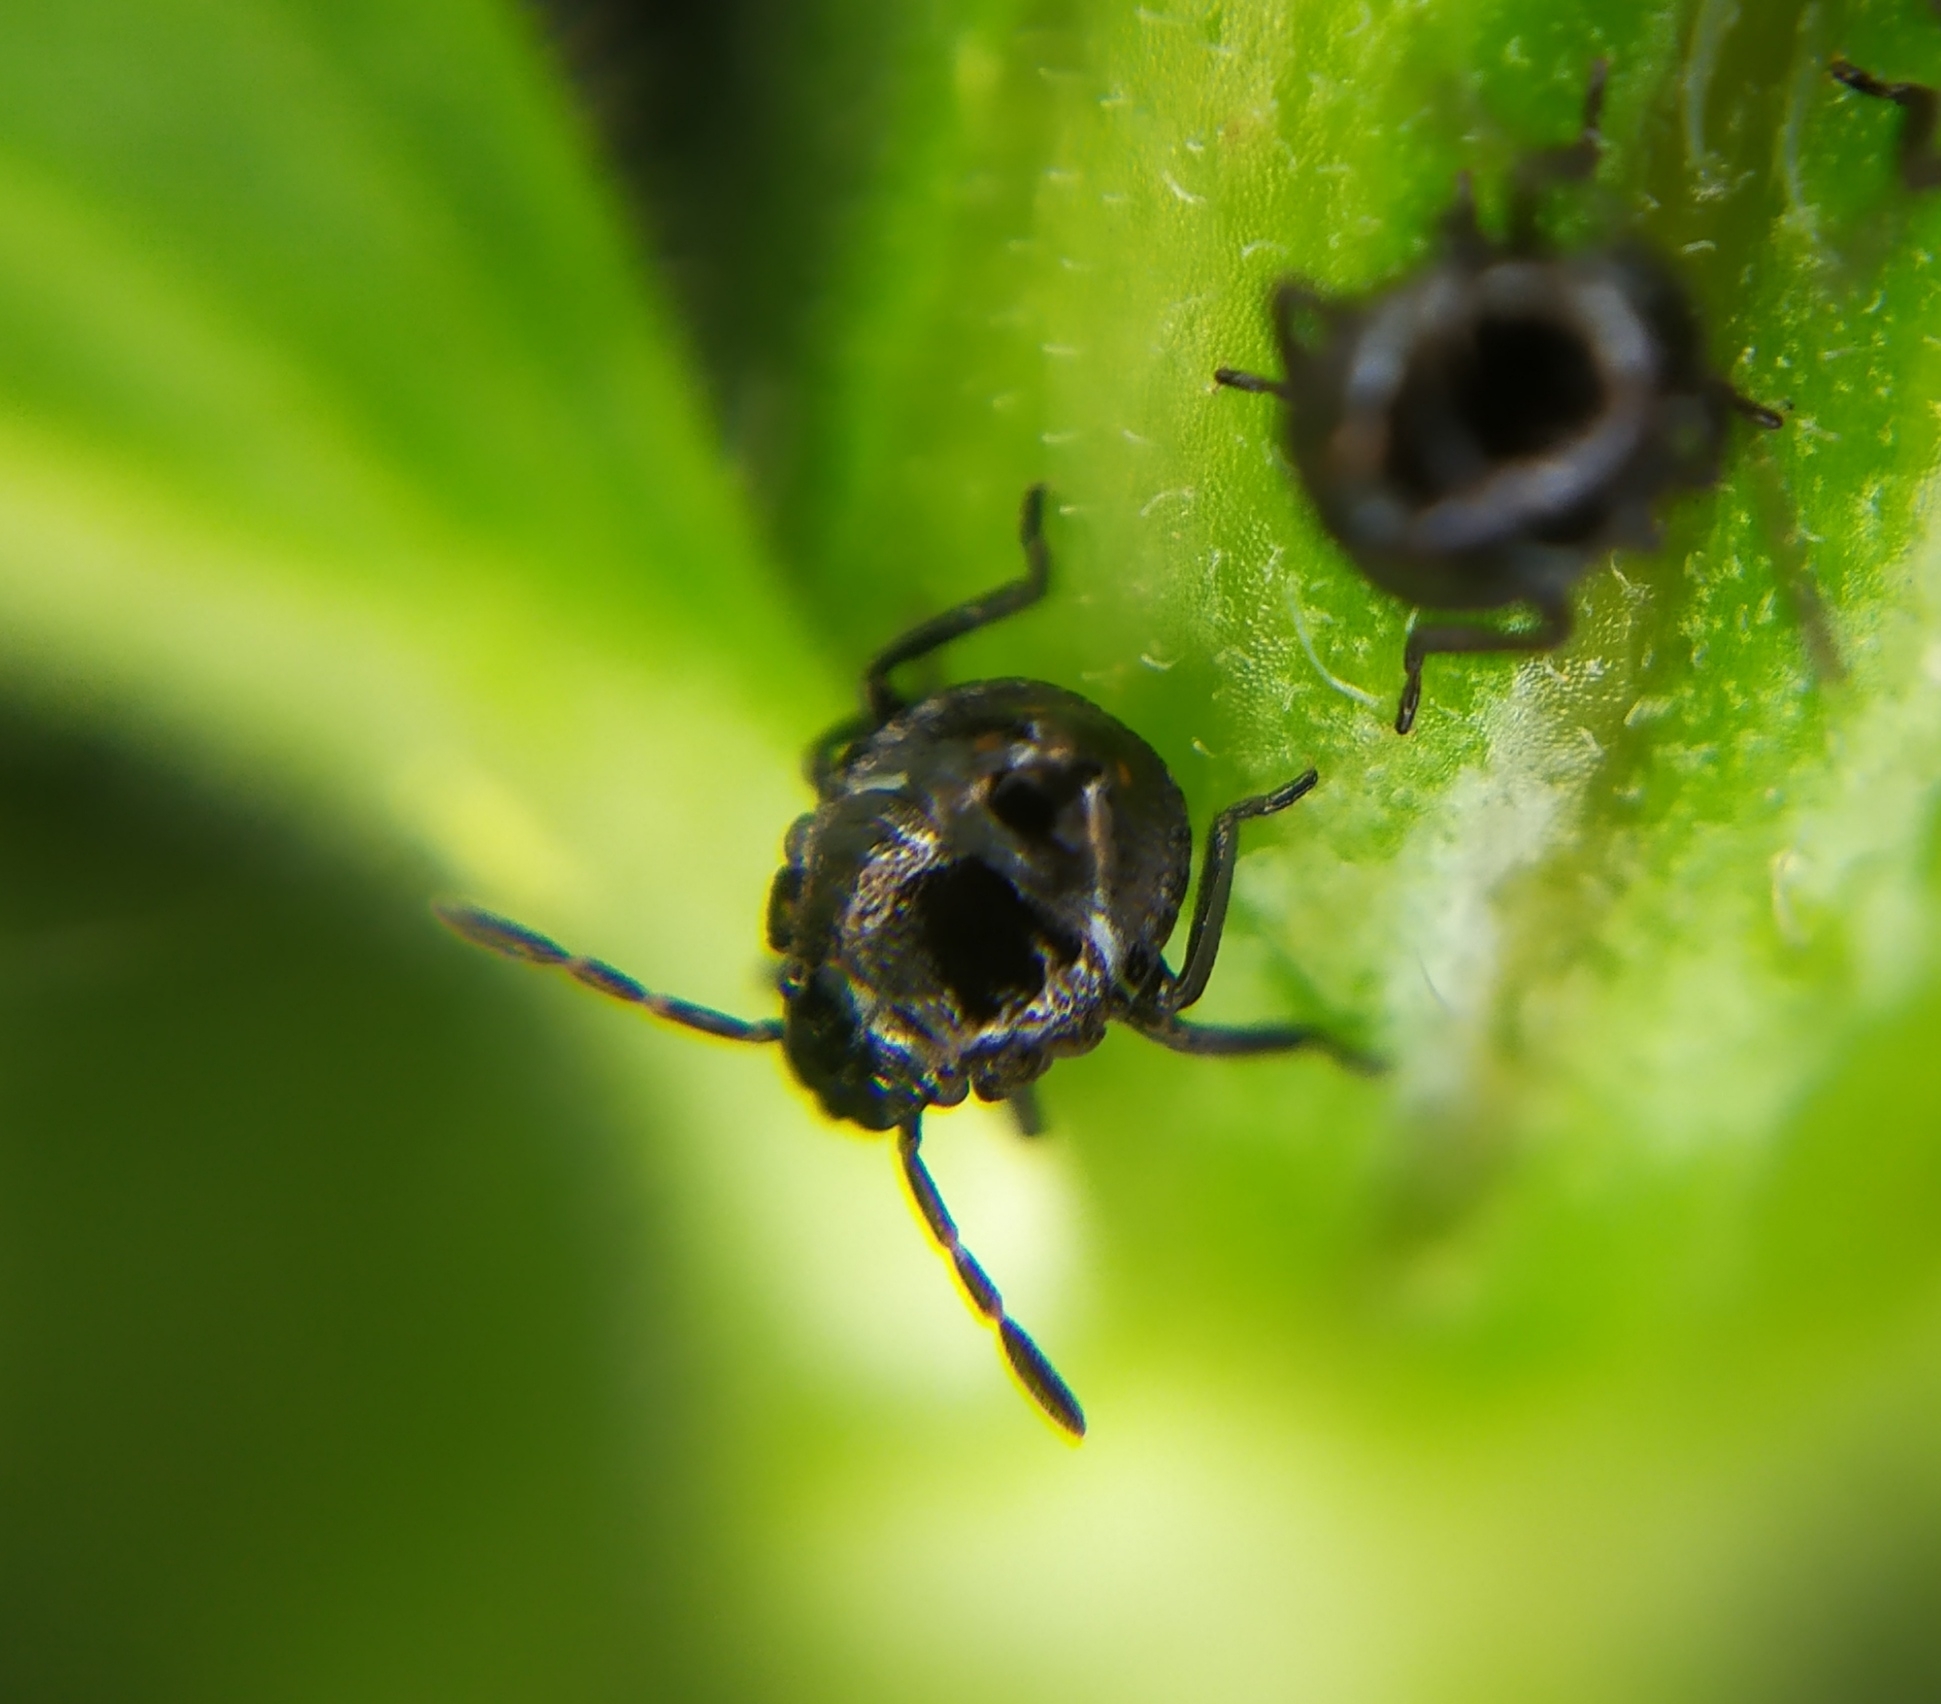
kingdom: Animalia
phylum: Arthropoda
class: Insecta
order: Hemiptera
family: Pentatomidae
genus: Nezara
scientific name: Nezara viridula
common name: Southern green stink bug
